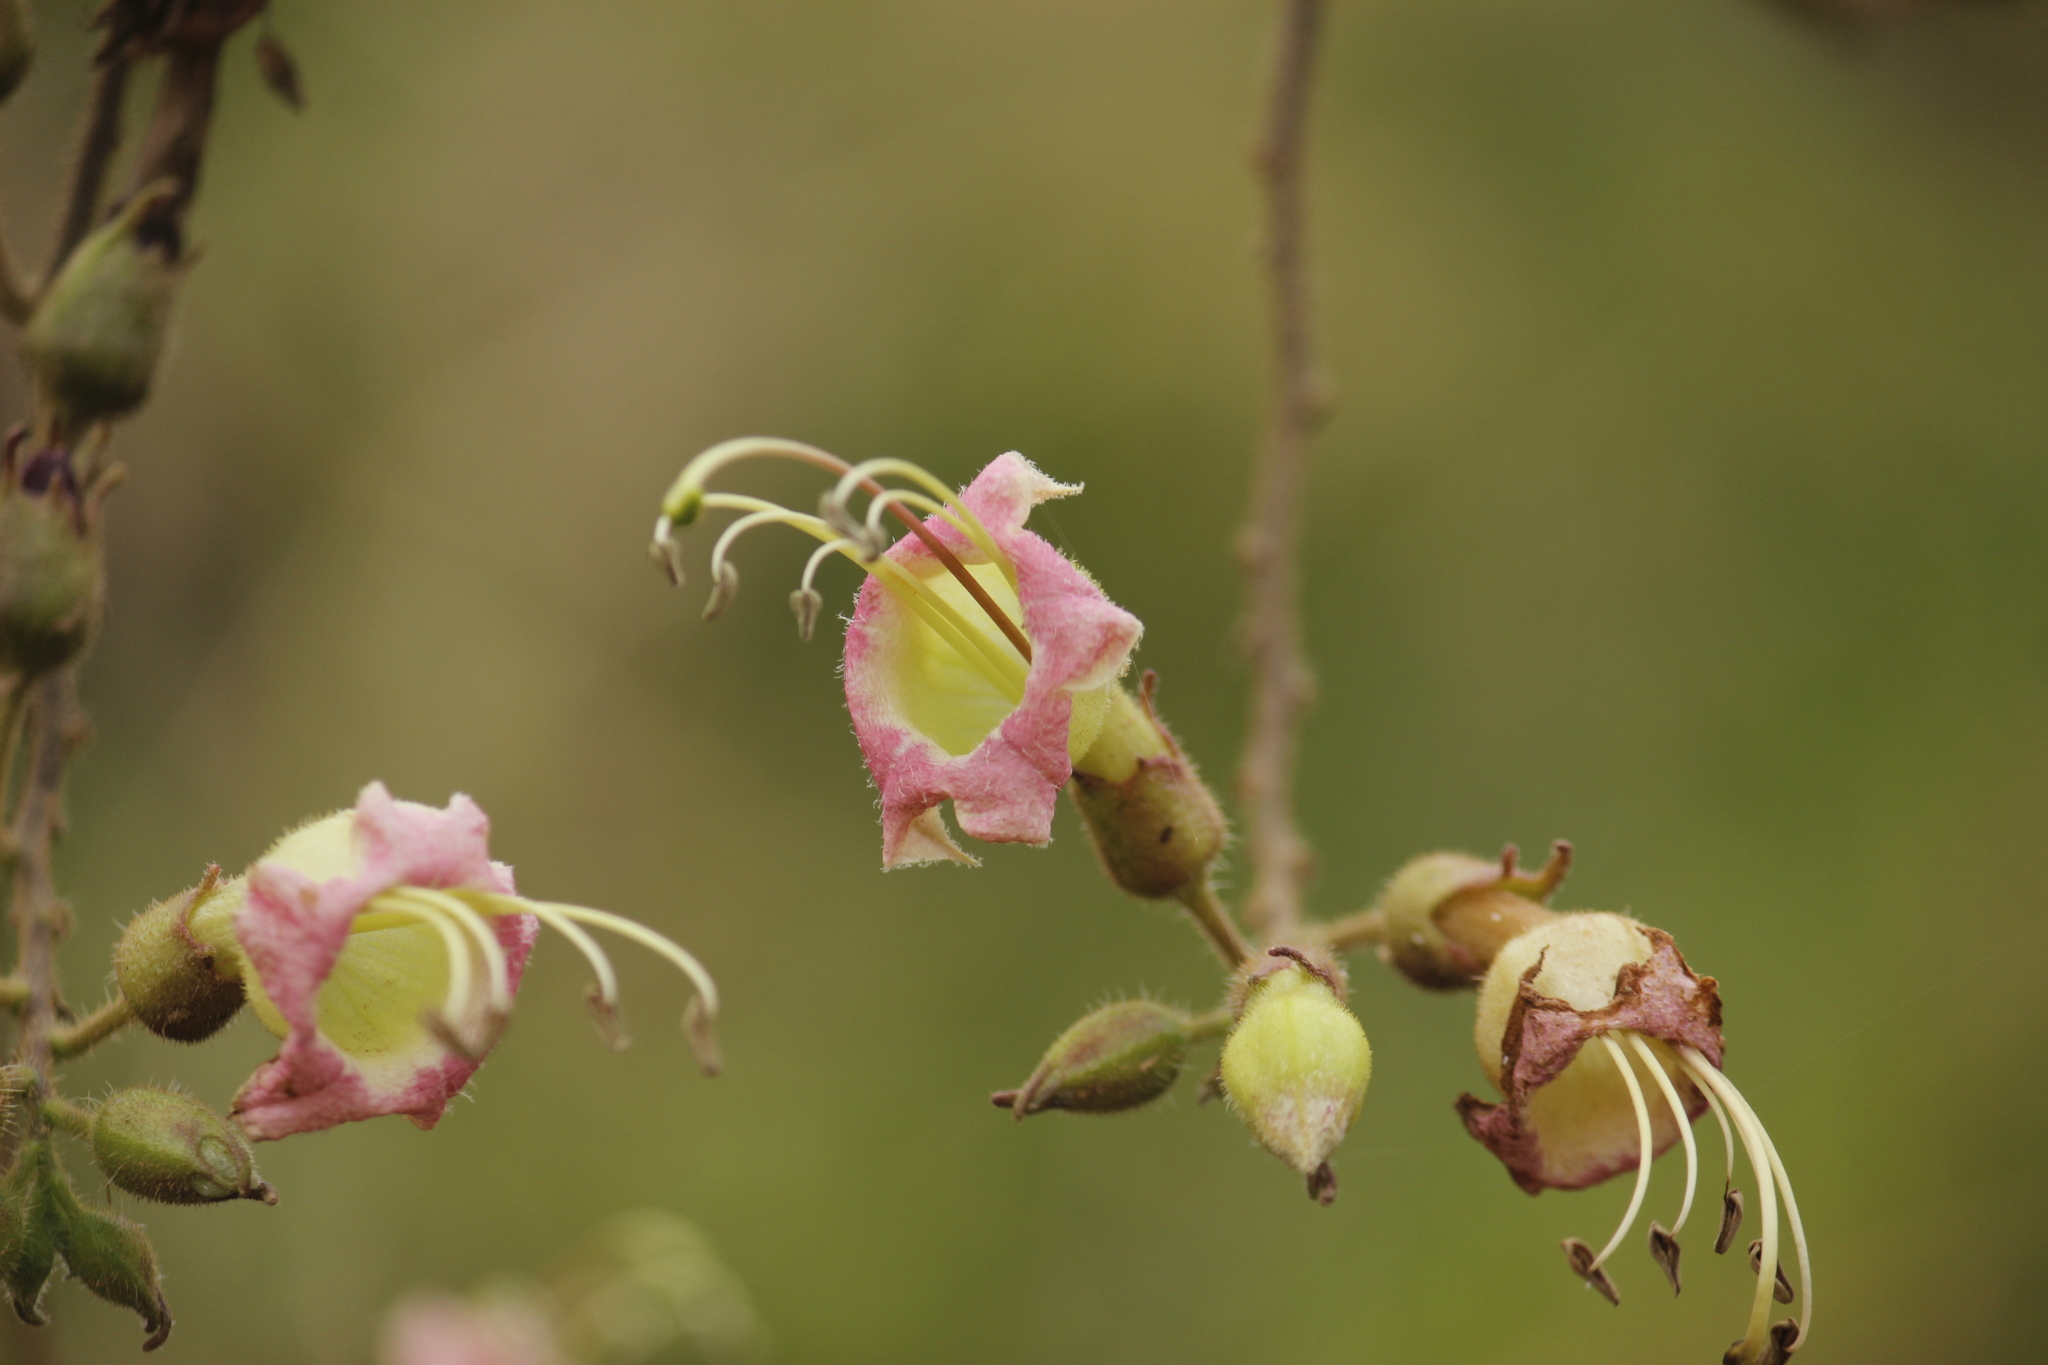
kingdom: Plantae
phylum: Tracheophyta
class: Magnoliopsida
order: Solanales
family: Solanaceae
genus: Nicotiana
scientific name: Nicotiana tomentosa
